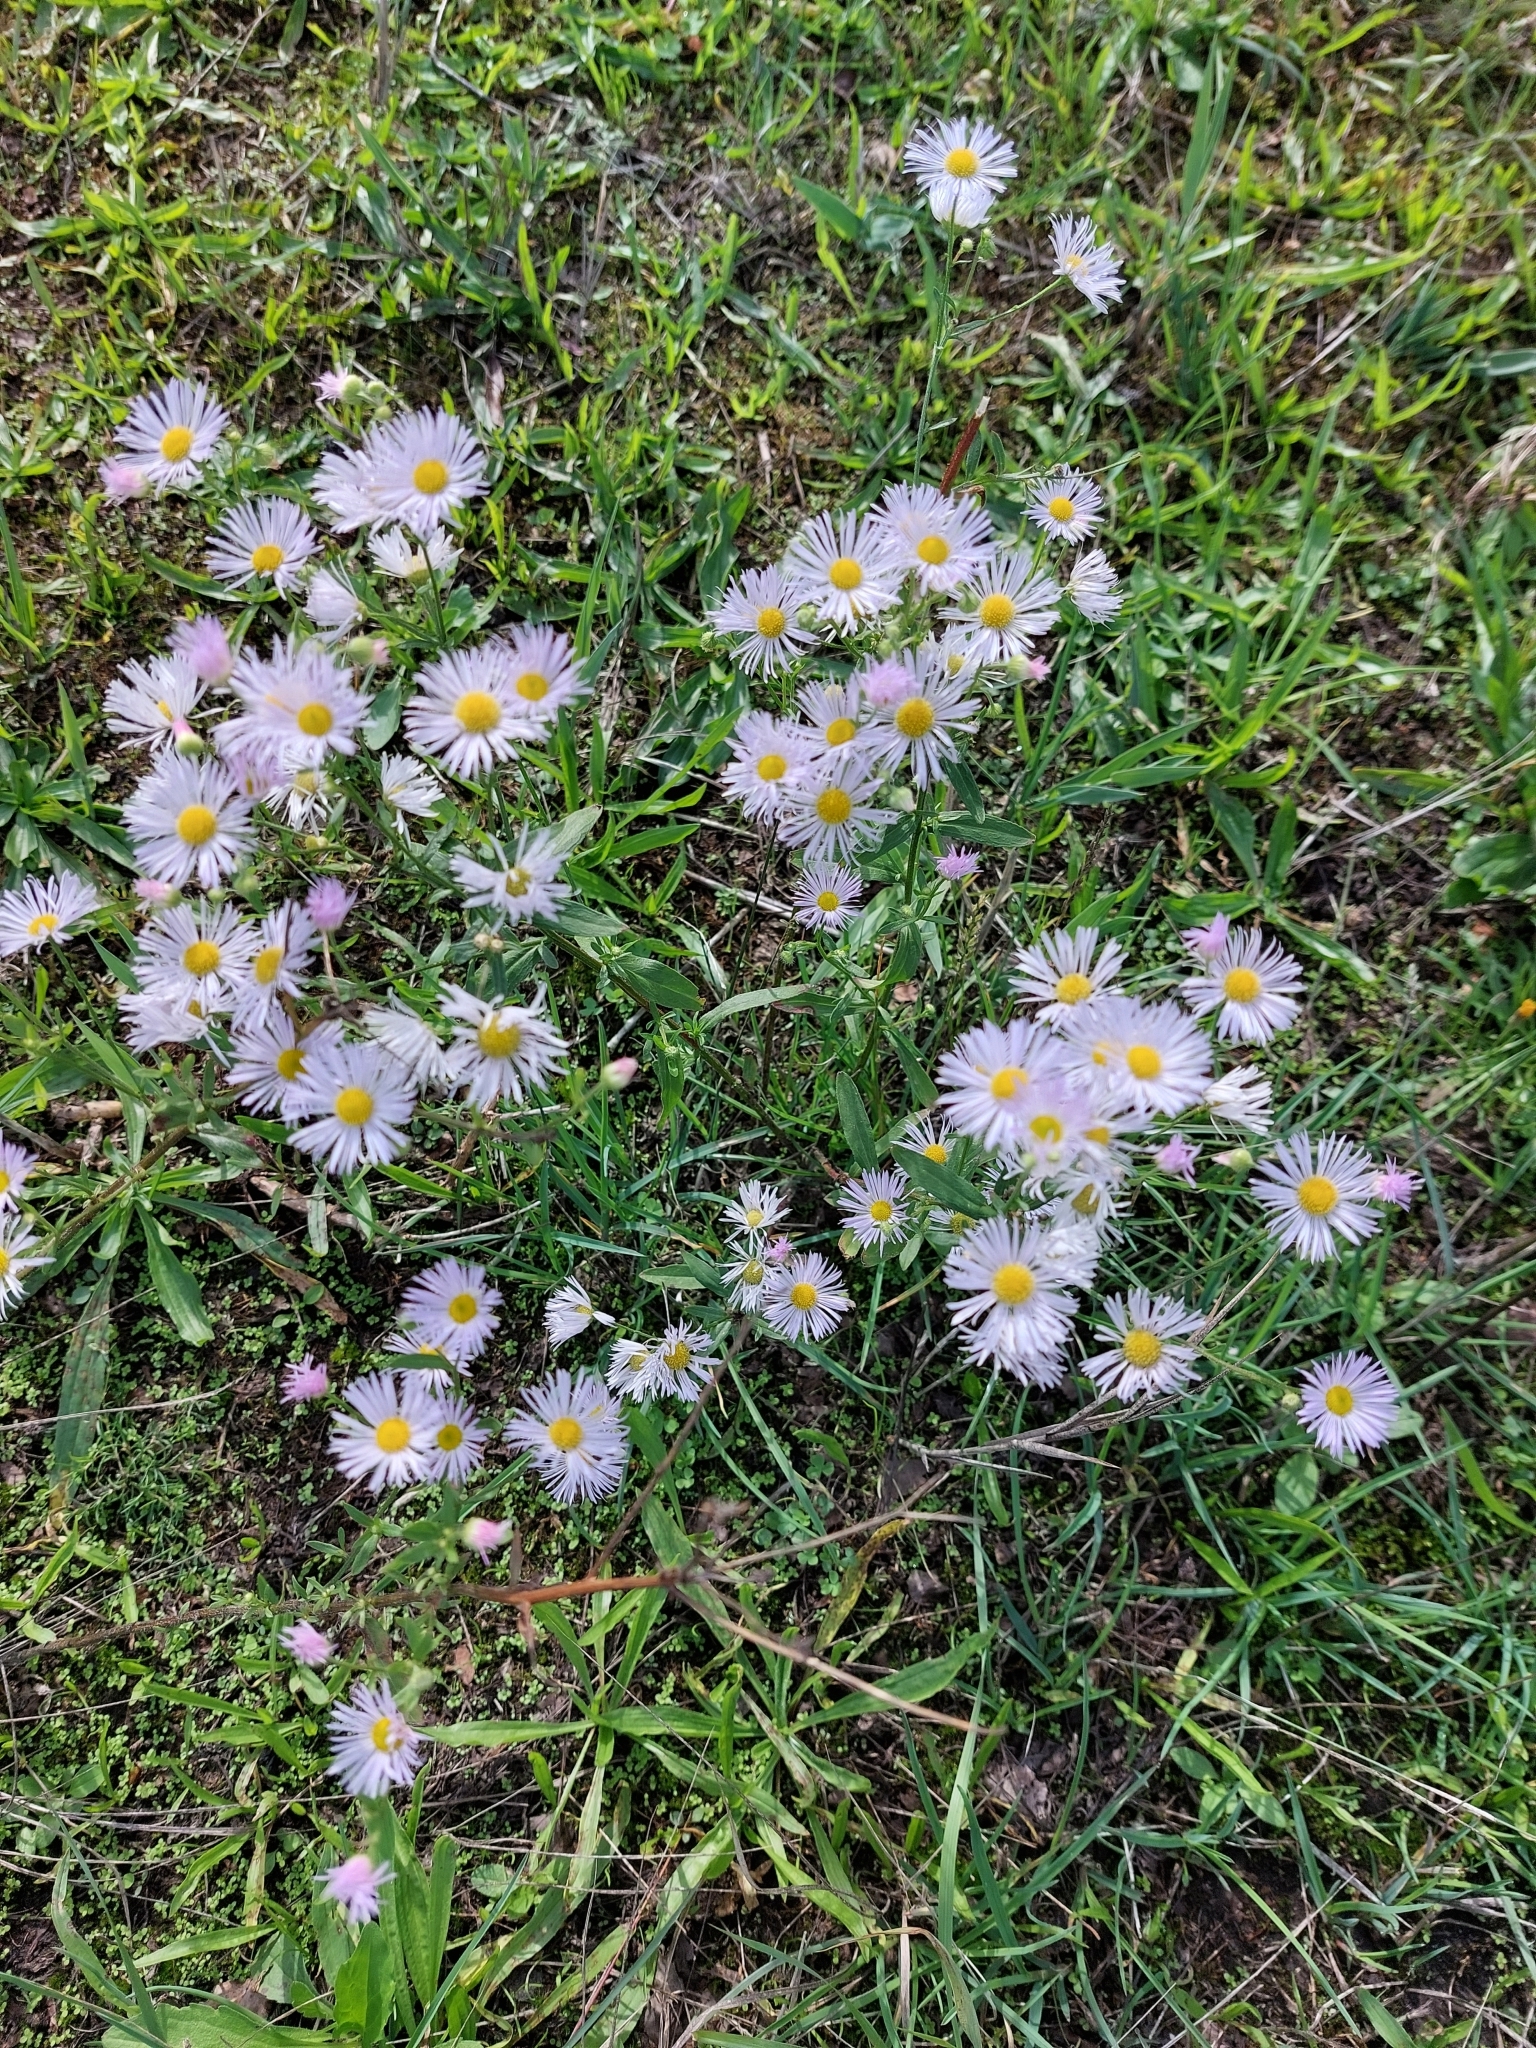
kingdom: Plantae
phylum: Tracheophyta
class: Magnoliopsida
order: Asterales
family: Asteraceae
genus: Erigeron
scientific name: Erigeron annuus
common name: Tall fleabane
